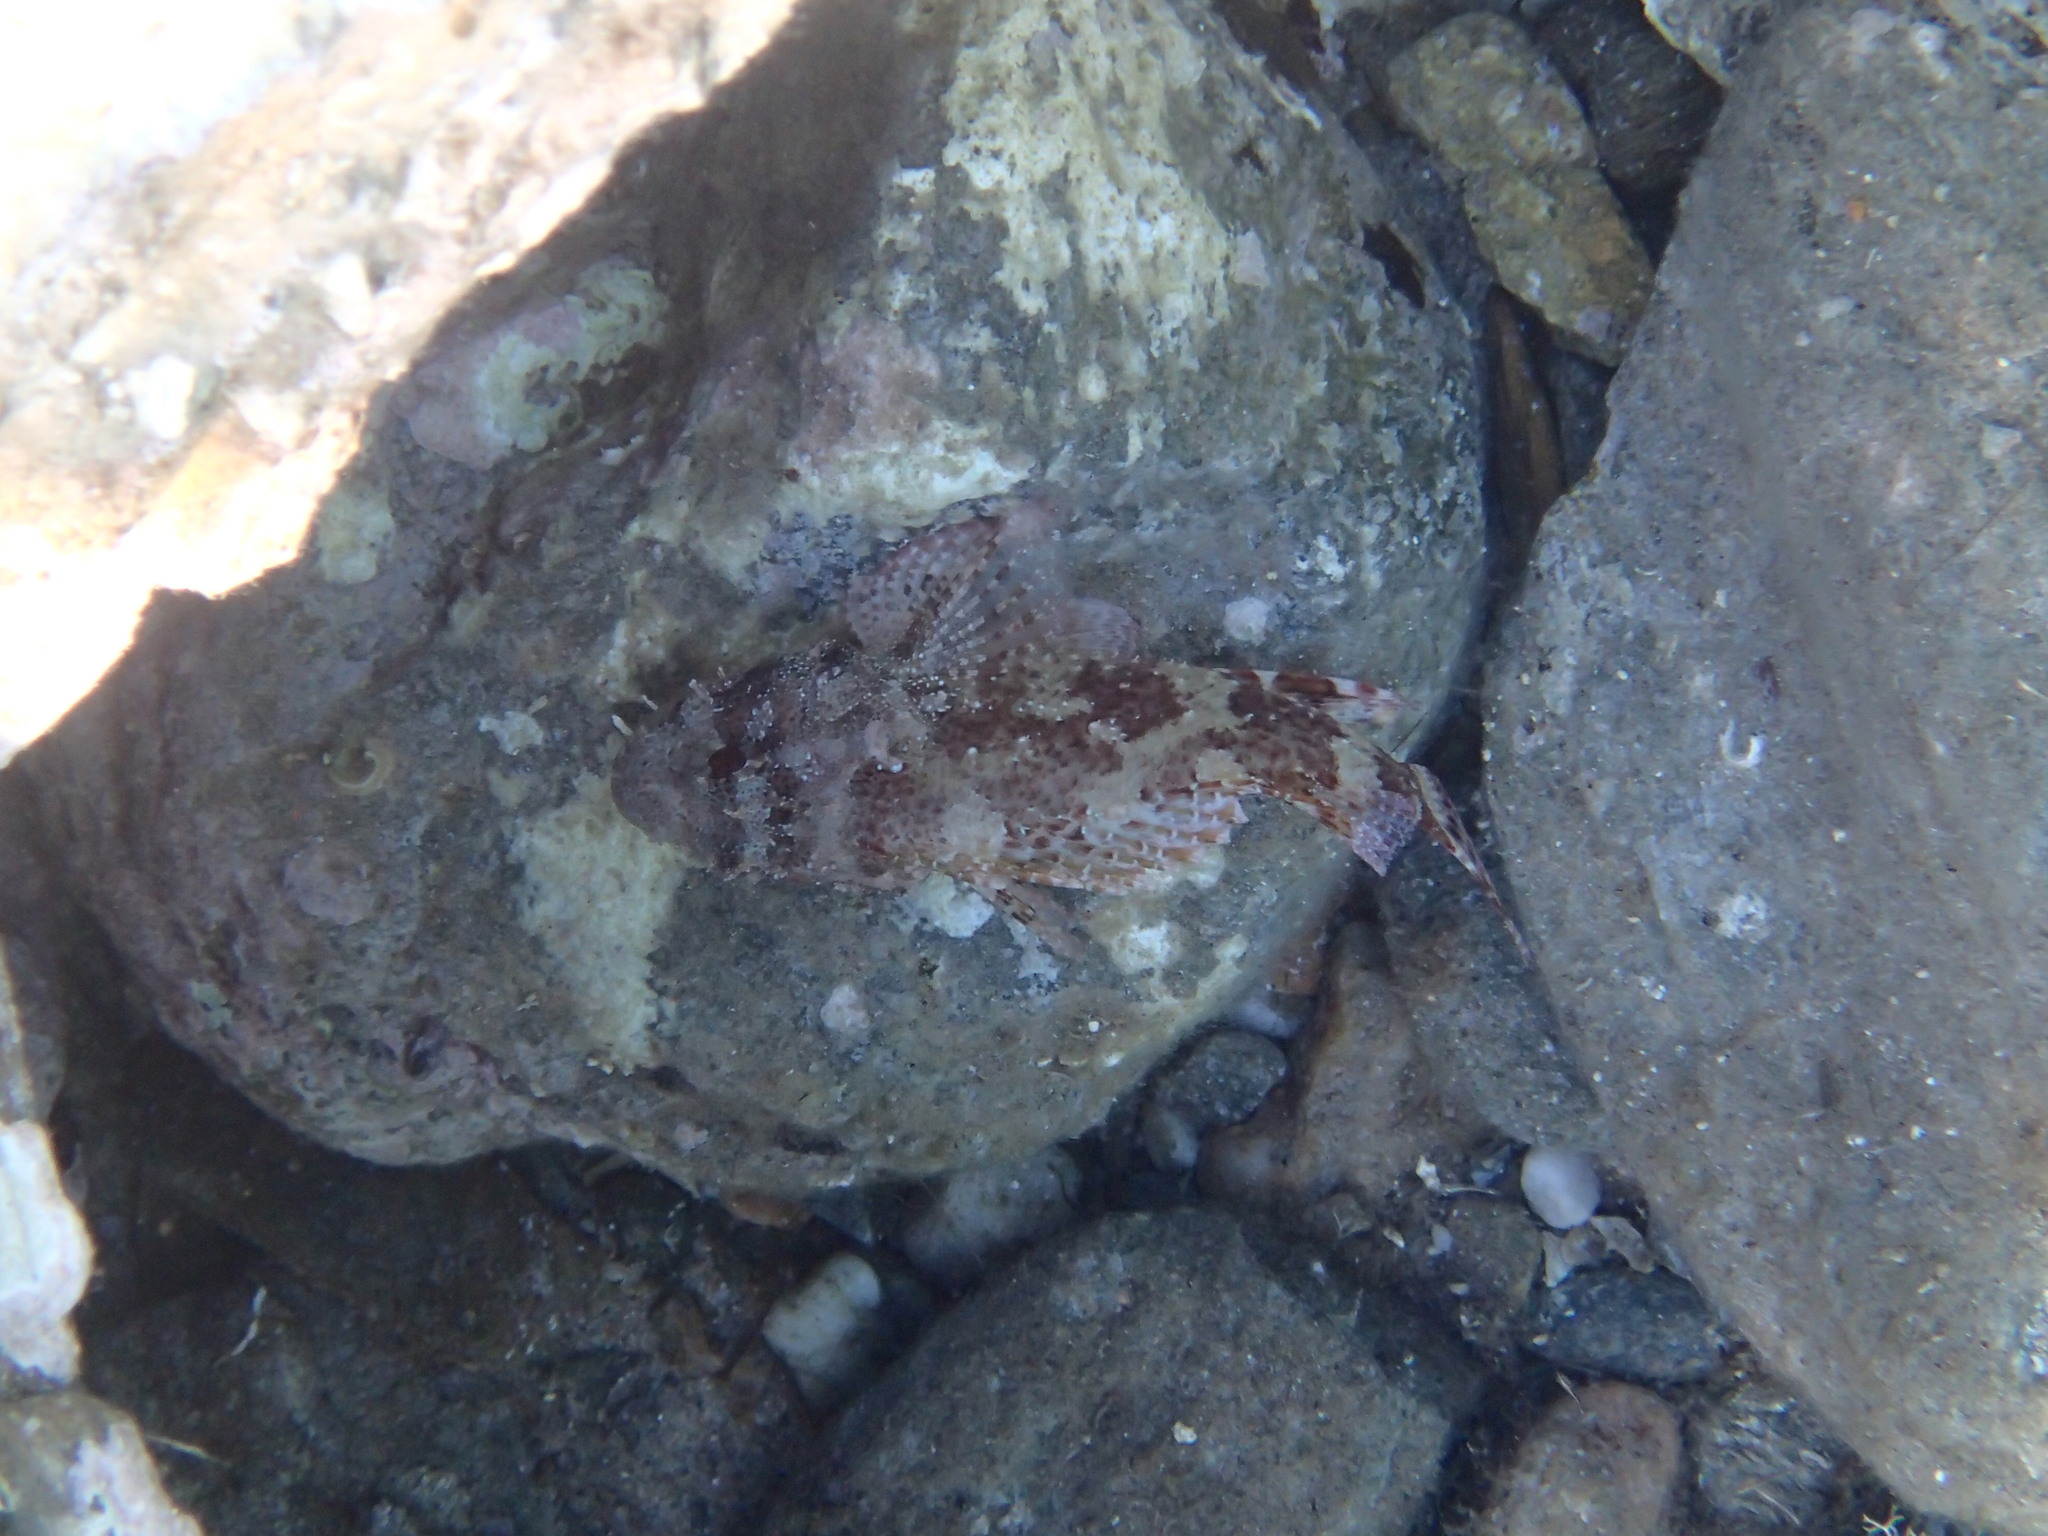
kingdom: Animalia
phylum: Chordata
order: Scorpaeniformes
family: Scorpaenidae
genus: Scorpaena
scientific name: Scorpaena maderensis
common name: Madeira rockfish
